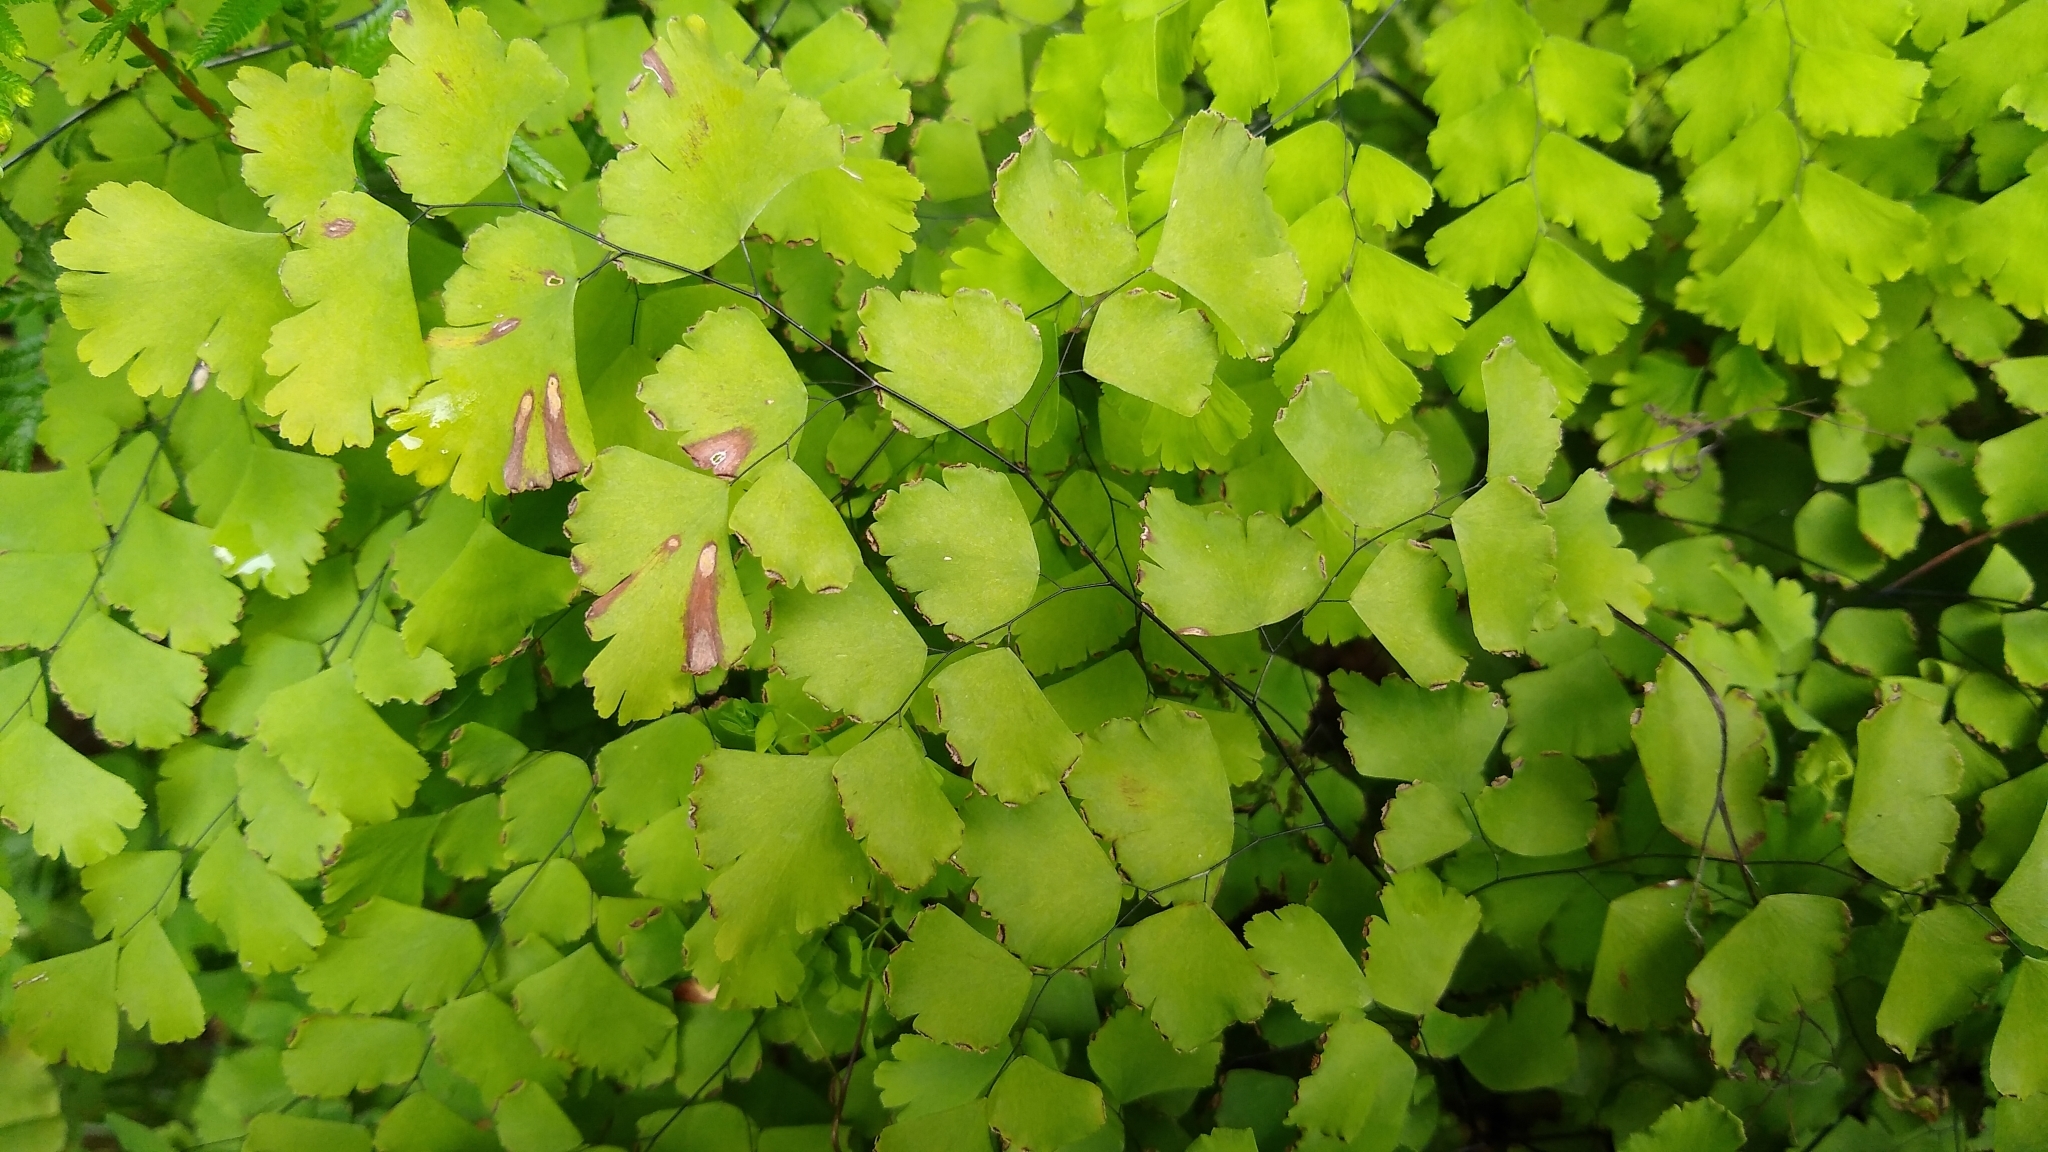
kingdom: Plantae
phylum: Tracheophyta
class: Polypodiopsida
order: Polypodiales
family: Pteridaceae
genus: Adiantum
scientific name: Adiantum tenerum
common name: Fan maidenhair
